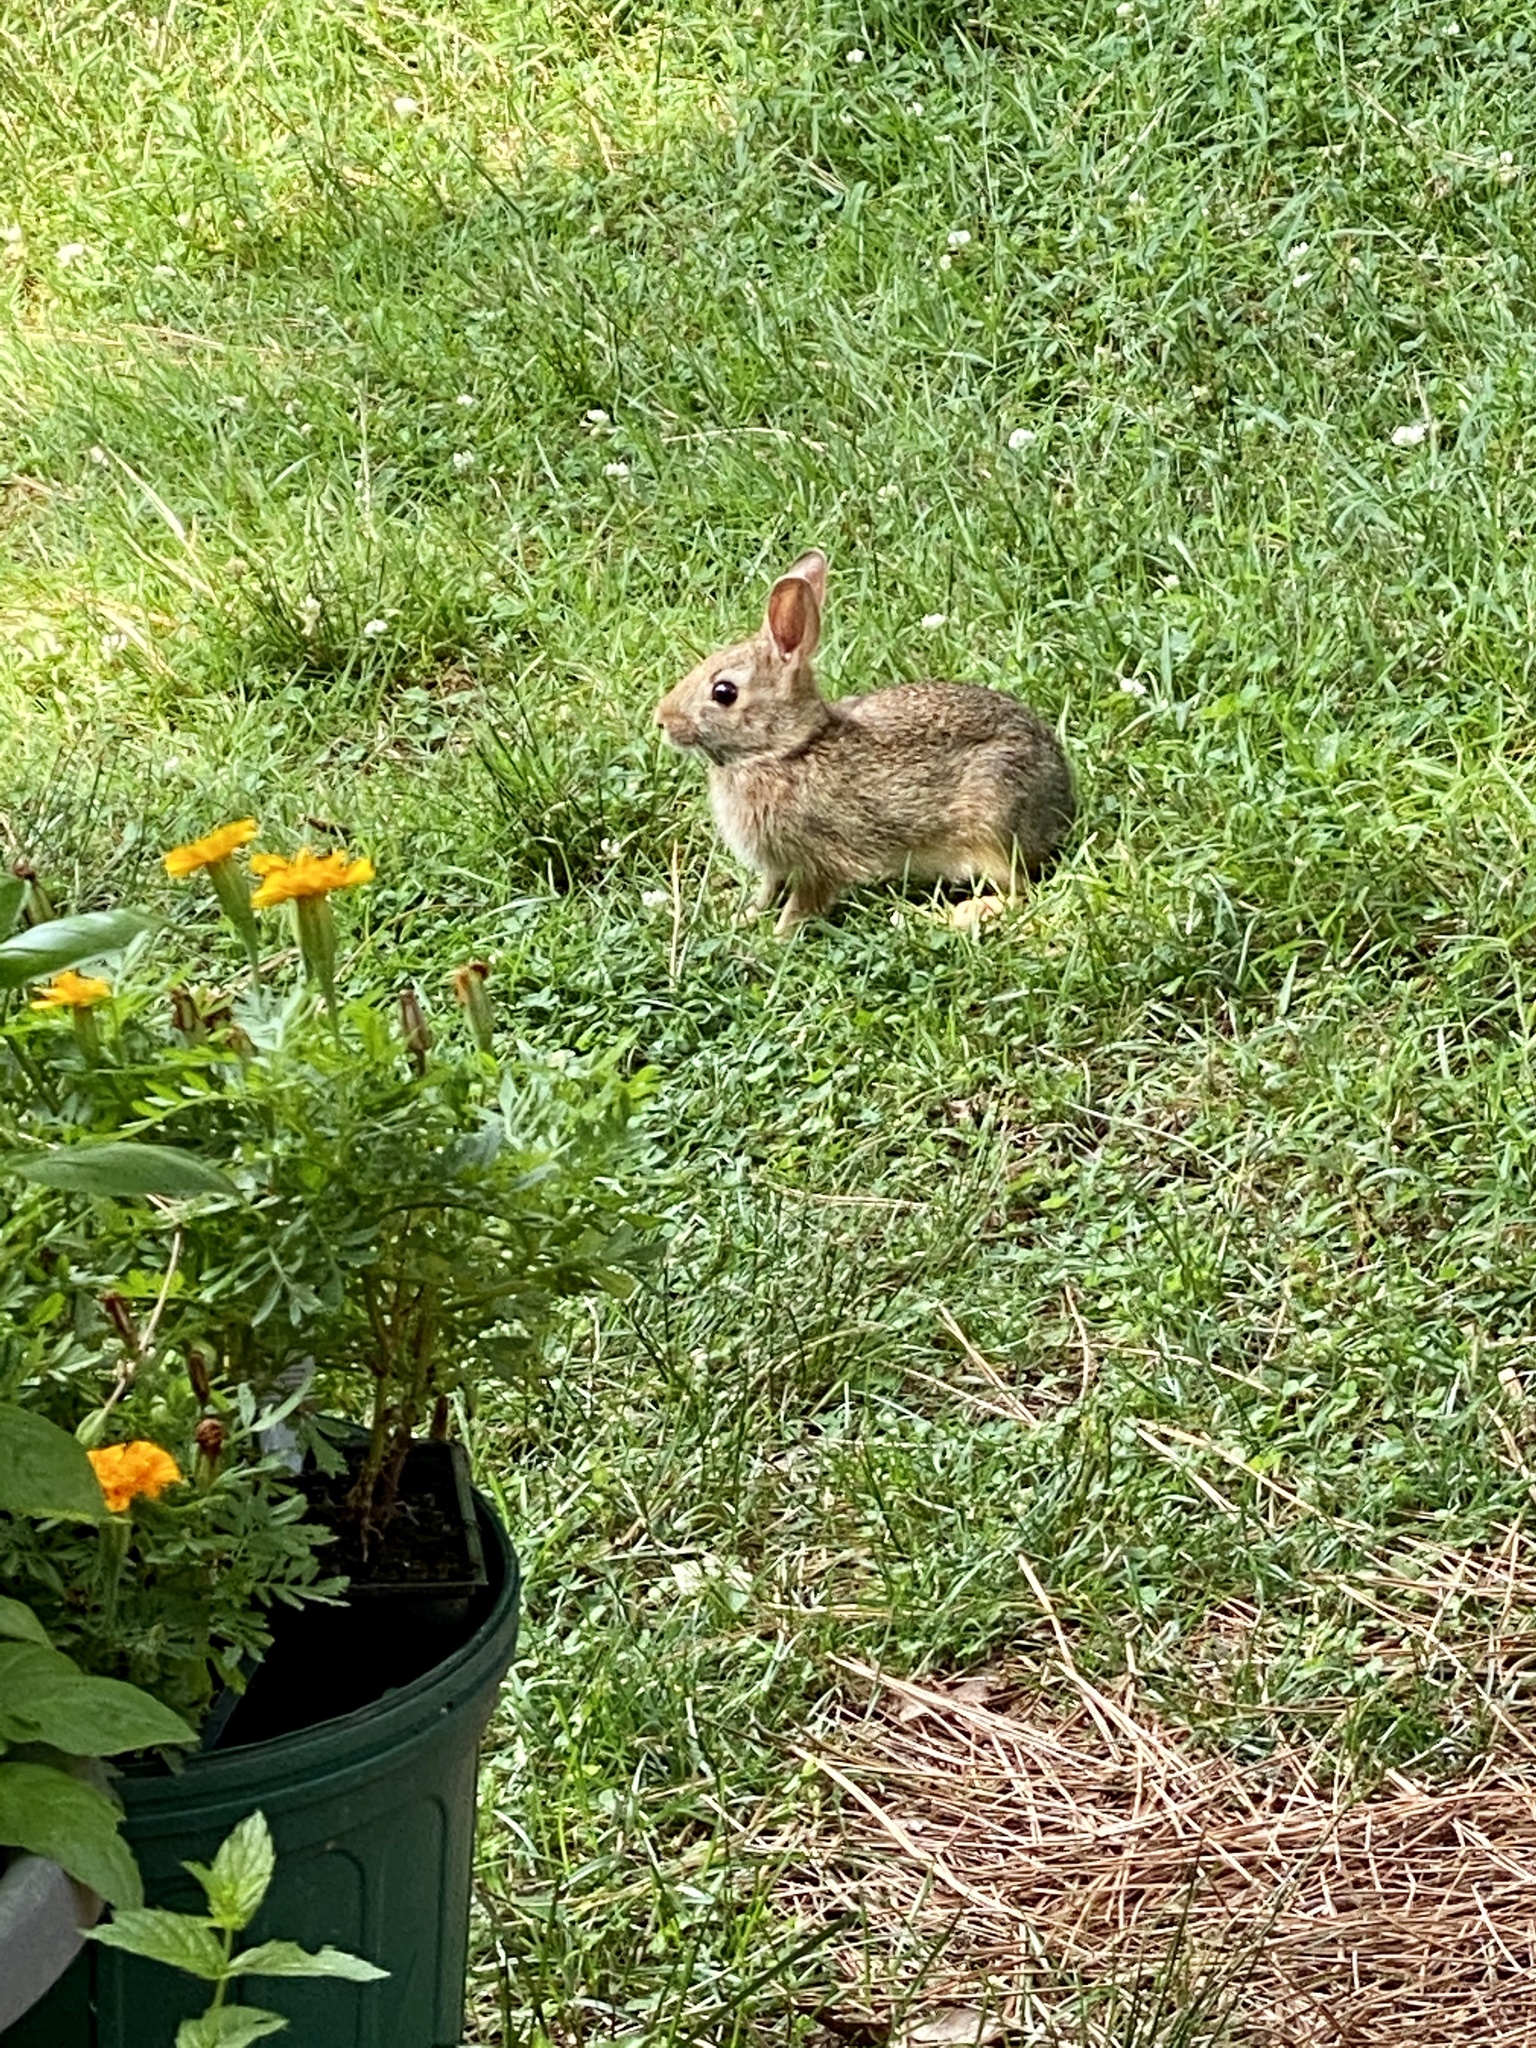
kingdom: Animalia
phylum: Chordata
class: Mammalia
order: Lagomorpha
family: Leporidae
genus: Sylvilagus
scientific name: Sylvilagus floridanus
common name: Eastern cottontail
